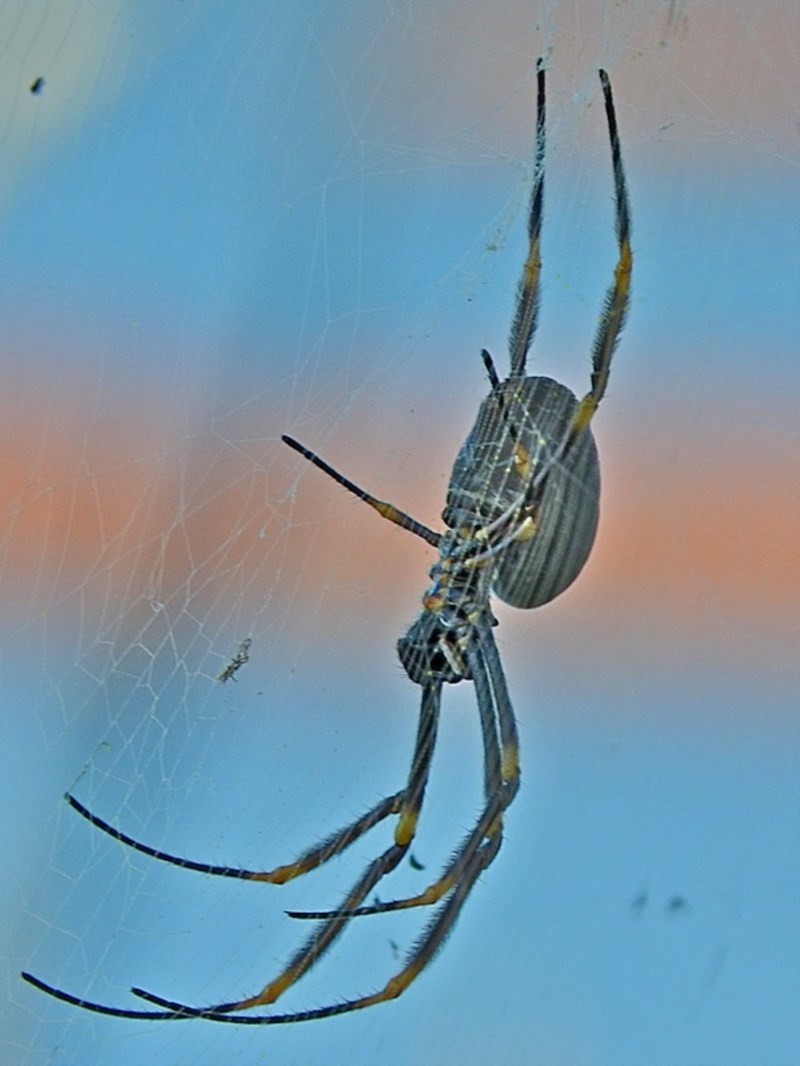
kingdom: Animalia
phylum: Arthropoda
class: Arachnida
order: Araneae
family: Araneidae
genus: Trichonephila
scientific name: Trichonephila plumipes
